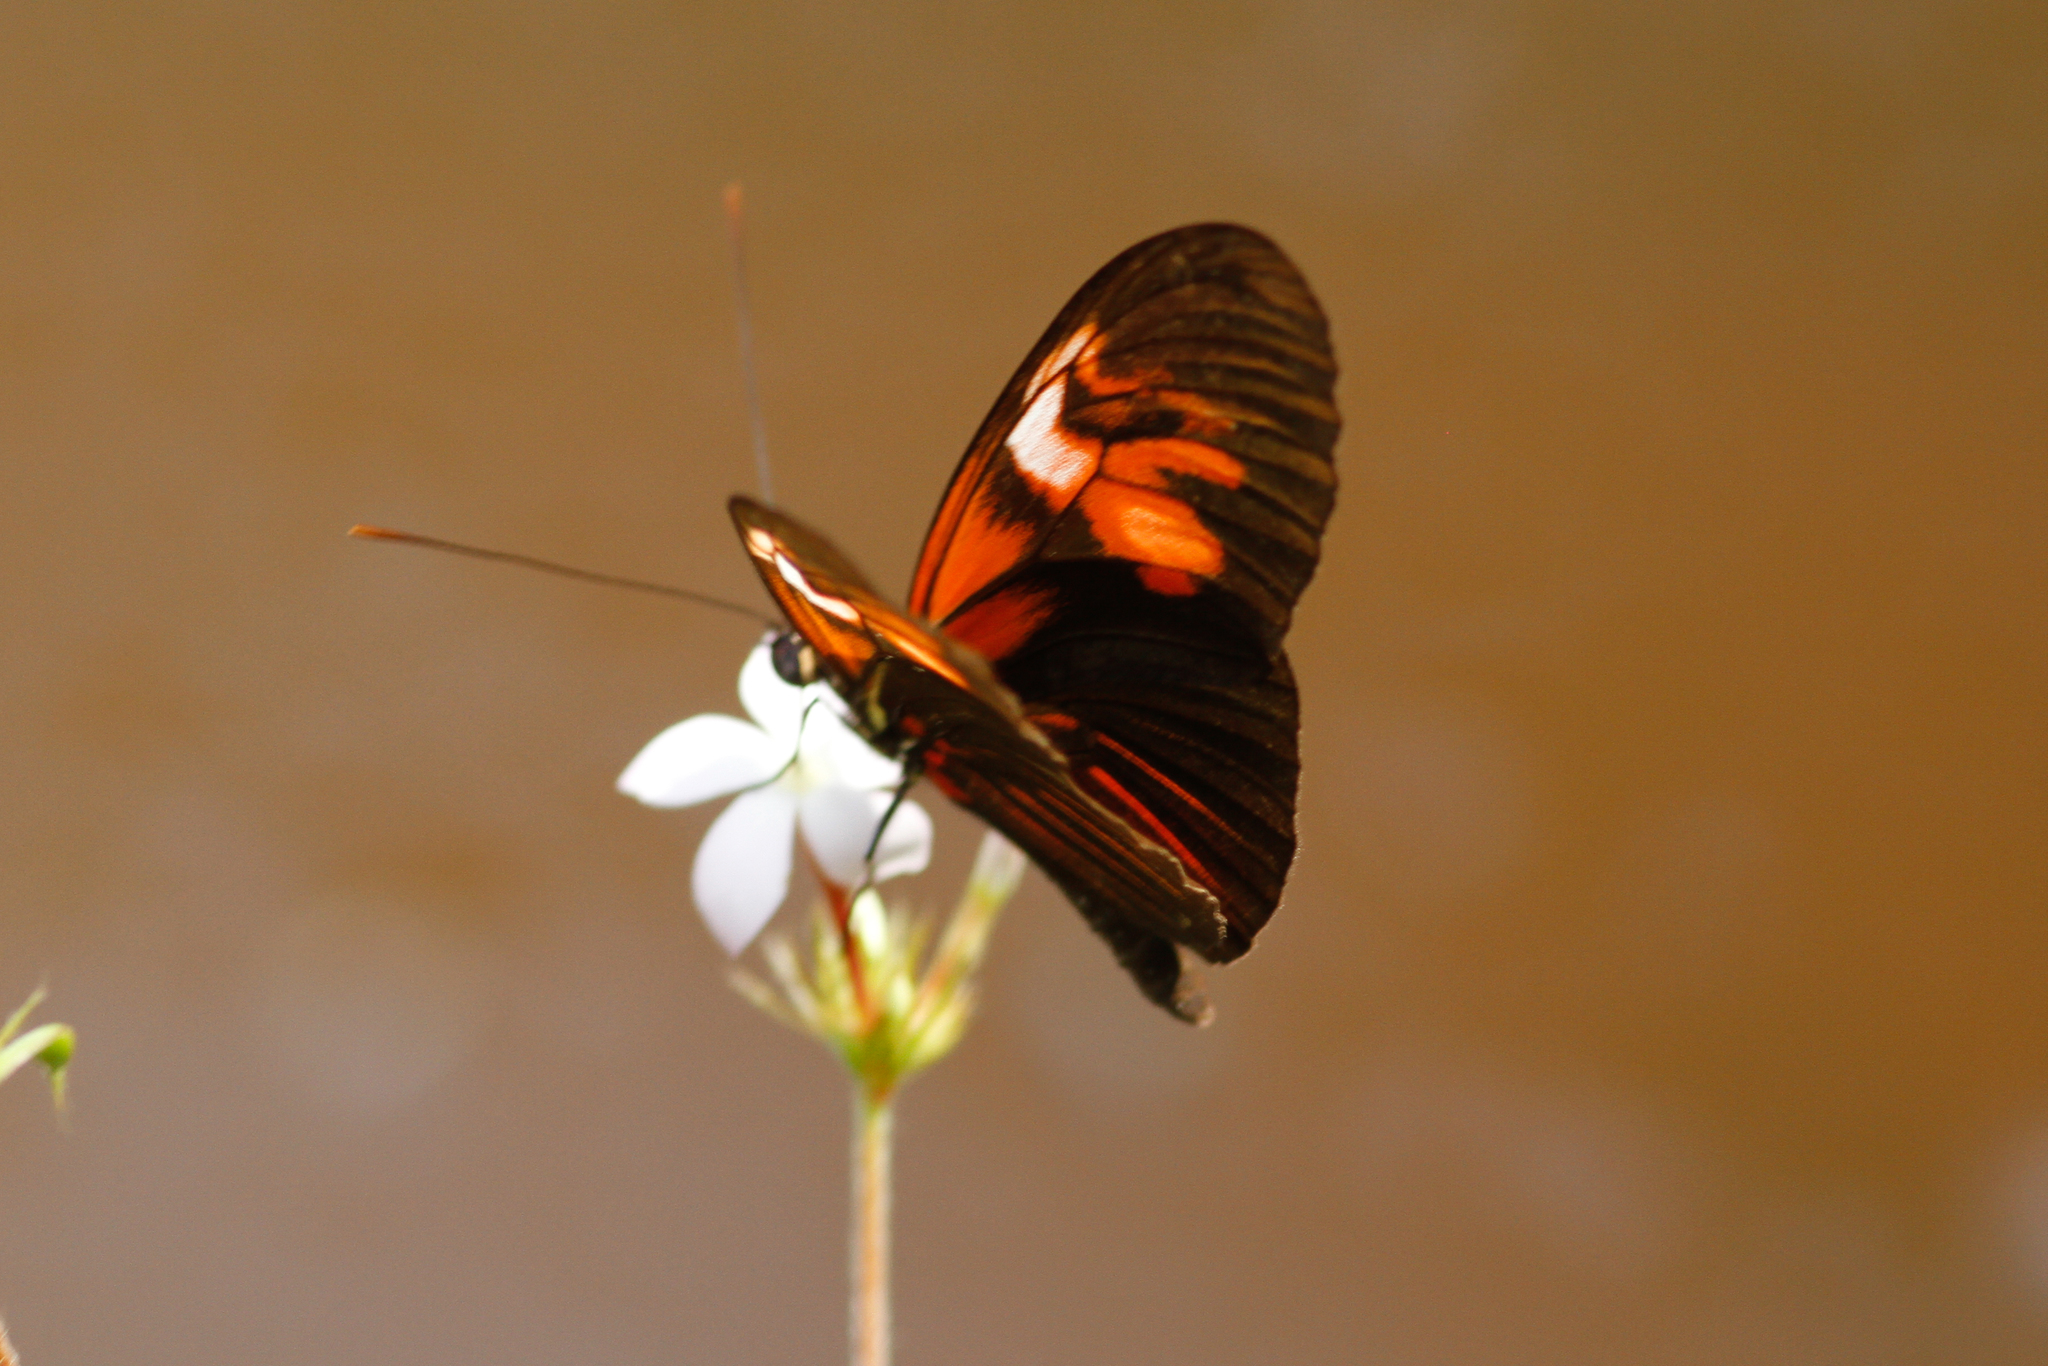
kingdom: Animalia
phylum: Arthropoda
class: Insecta
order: Lepidoptera
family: Nymphalidae
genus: Heliconius
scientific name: Heliconius erato
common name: Common patch longwing
